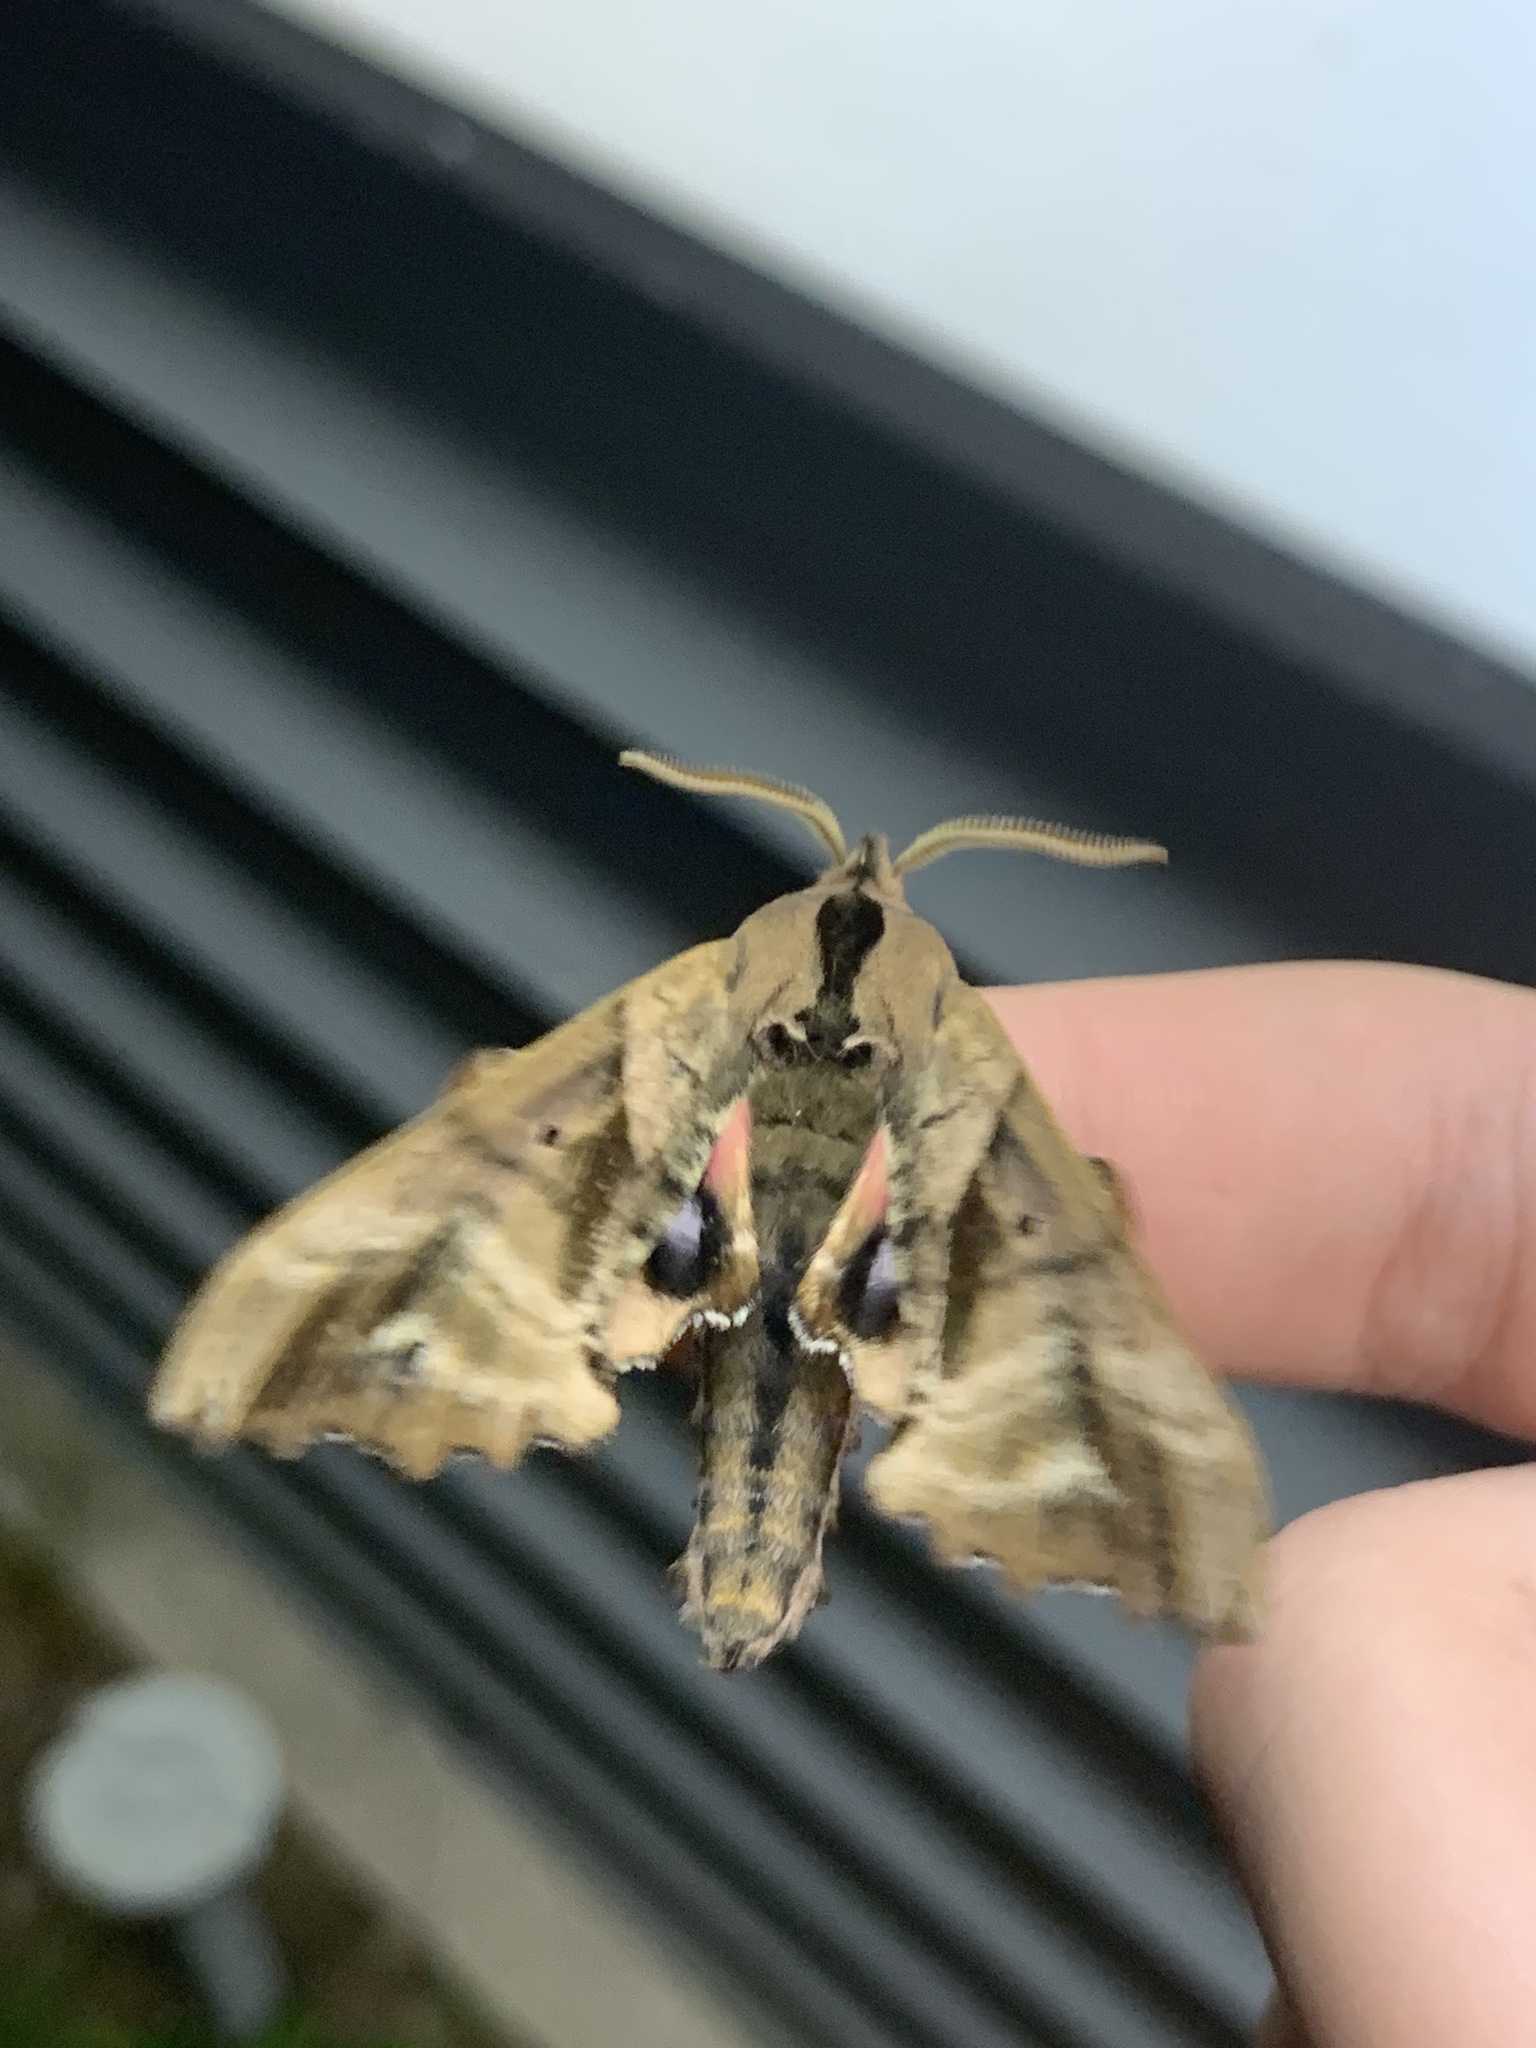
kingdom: Animalia
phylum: Arthropoda
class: Insecta
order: Lepidoptera
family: Sphingidae
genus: Paonias
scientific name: Paonias excaecata
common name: Blind-eyed sphinx
